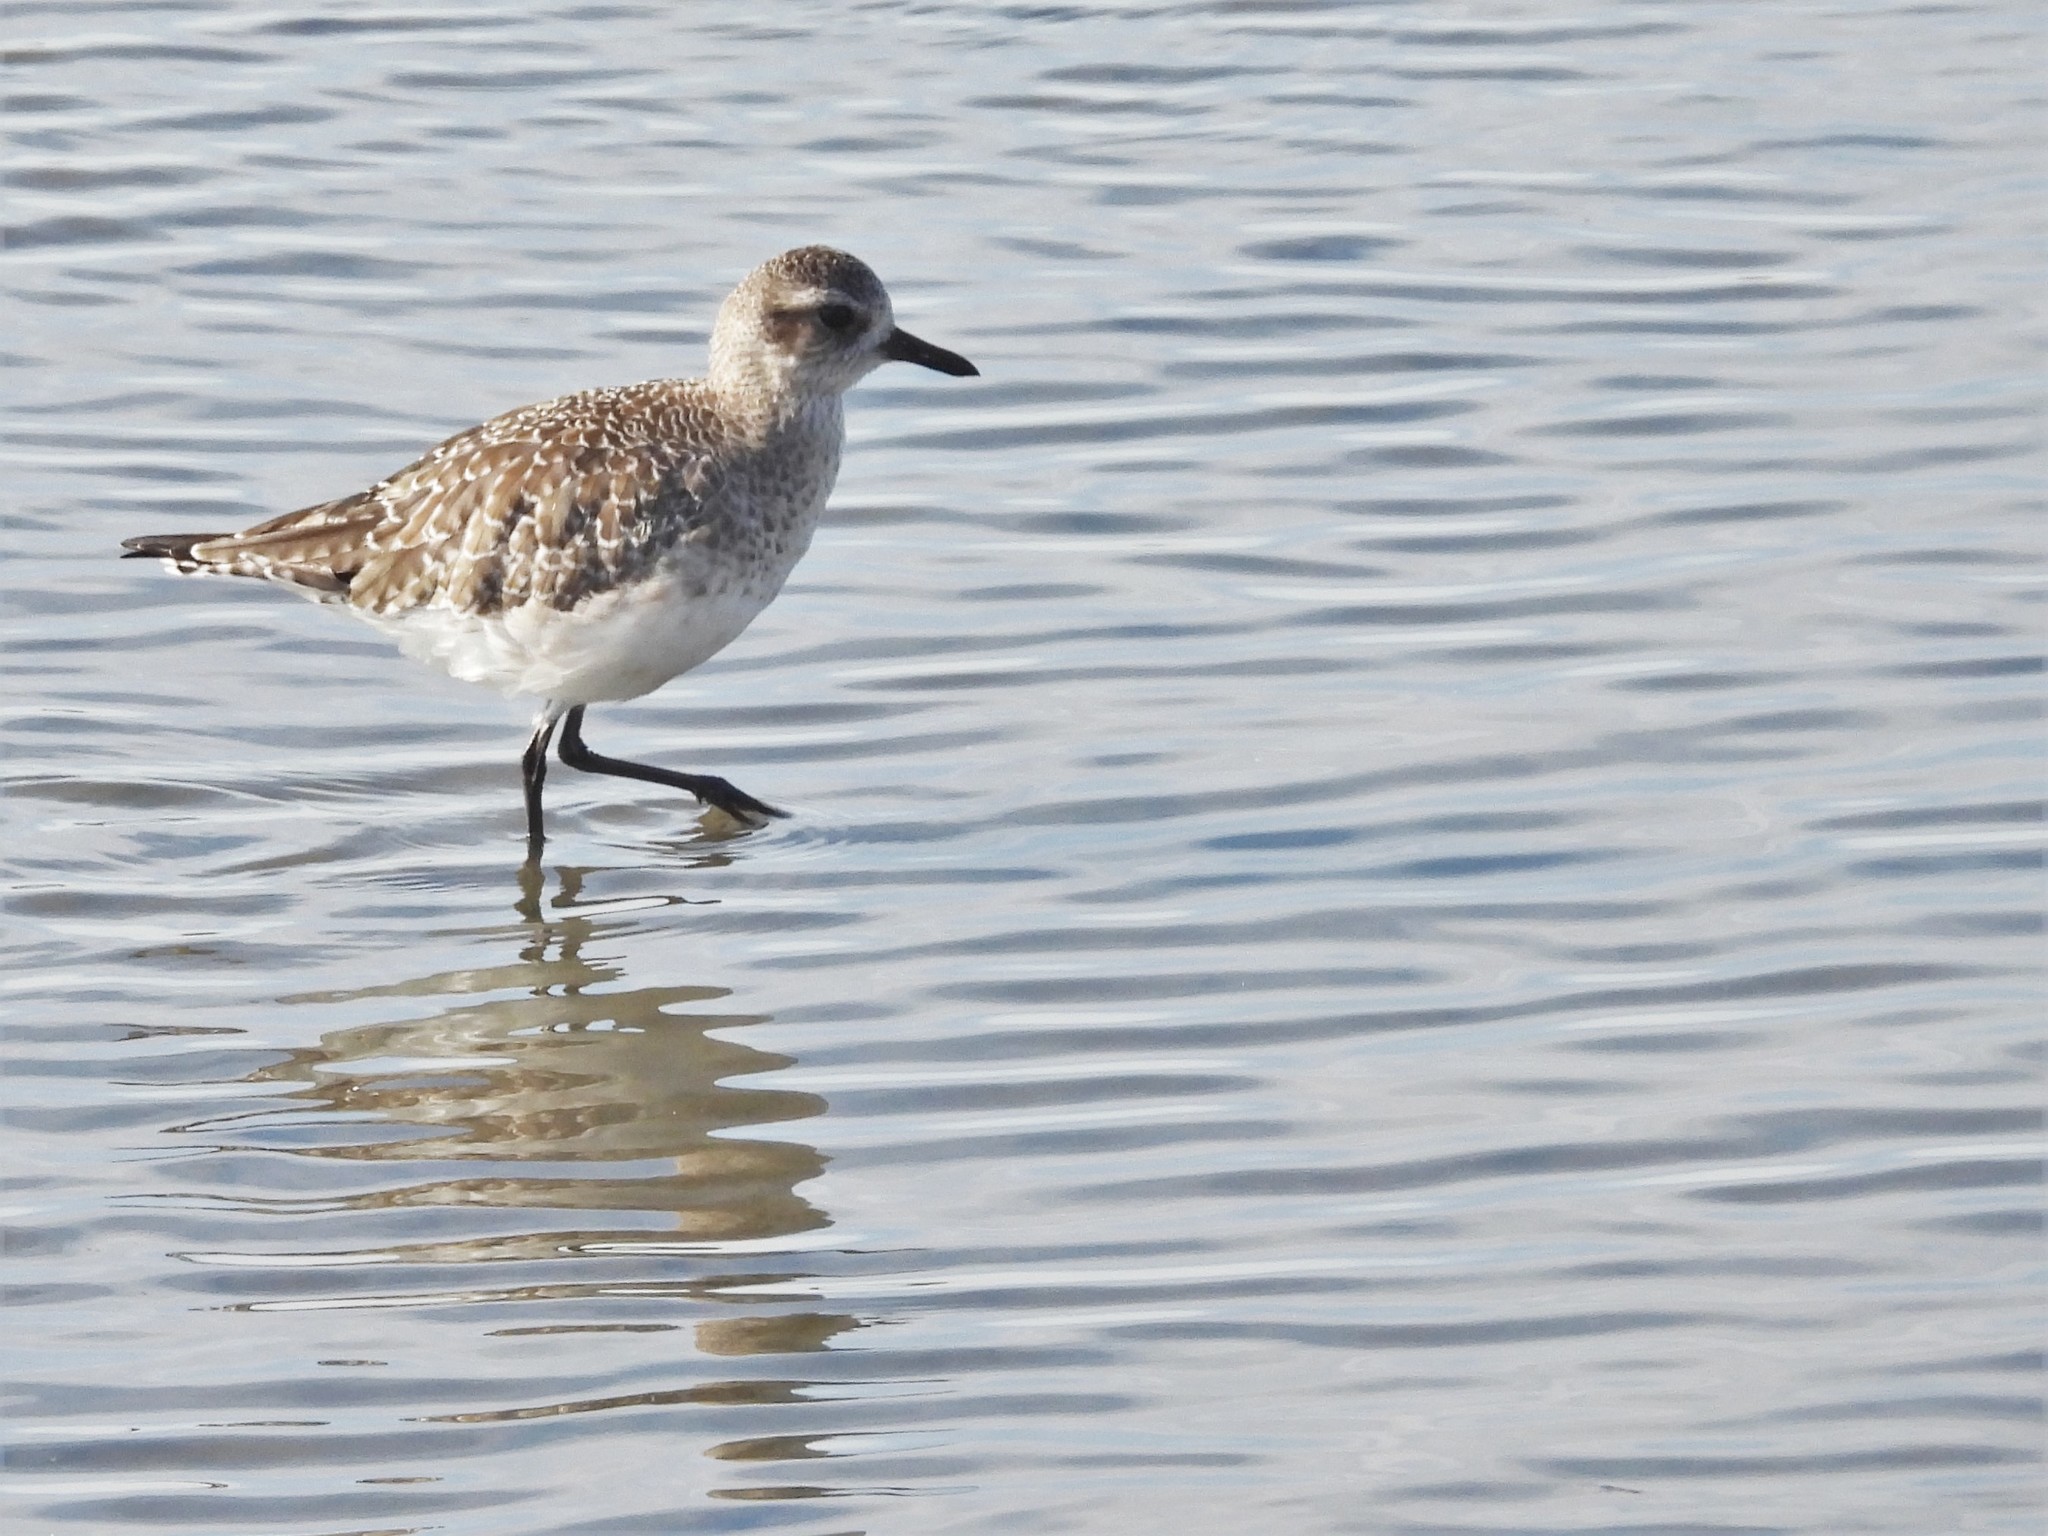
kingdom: Animalia
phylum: Chordata
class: Aves
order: Charadriiformes
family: Charadriidae
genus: Pluvialis
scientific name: Pluvialis squatarola
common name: Grey plover
